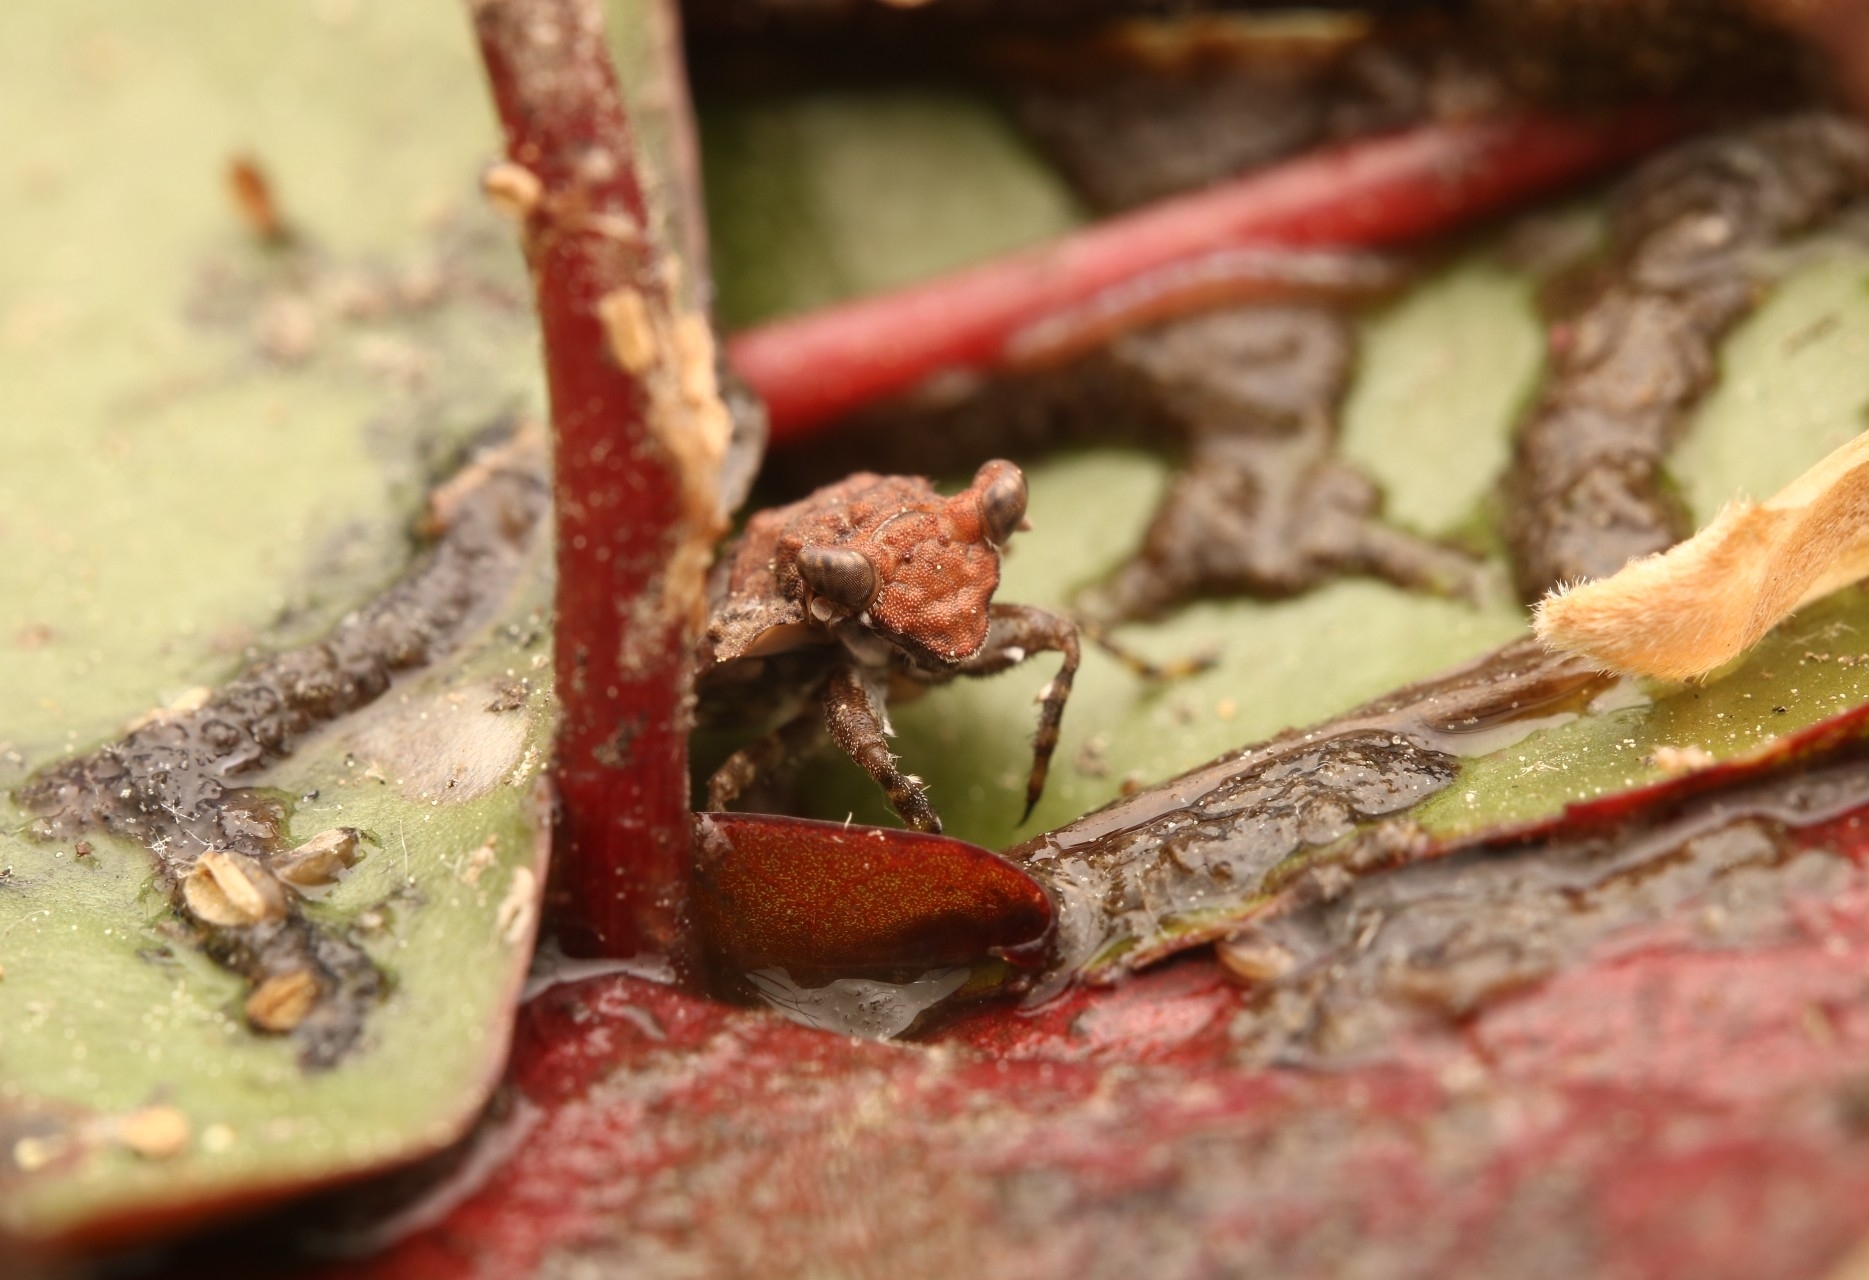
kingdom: Animalia
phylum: Arthropoda
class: Insecta
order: Hemiptera
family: Gelastocoridae
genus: Gelastocoris
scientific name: Gelastocoris oculatus
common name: Toad bug
